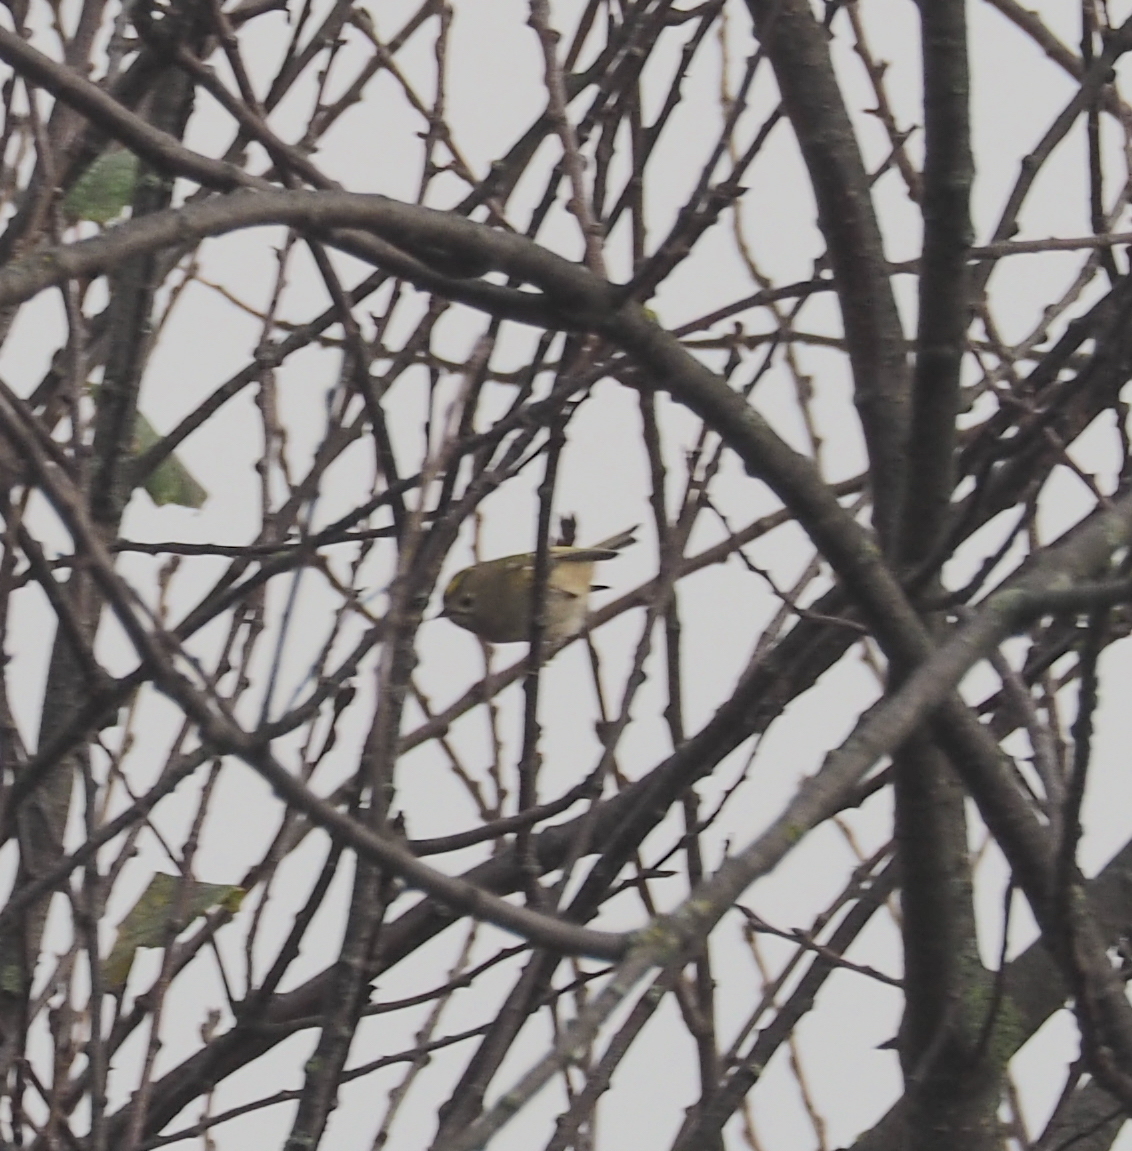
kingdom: Animalia
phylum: Chordata
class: Aves
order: Passeriformes
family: Regulidae
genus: Regulus
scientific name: Regulus regulus
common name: Goldcrest
